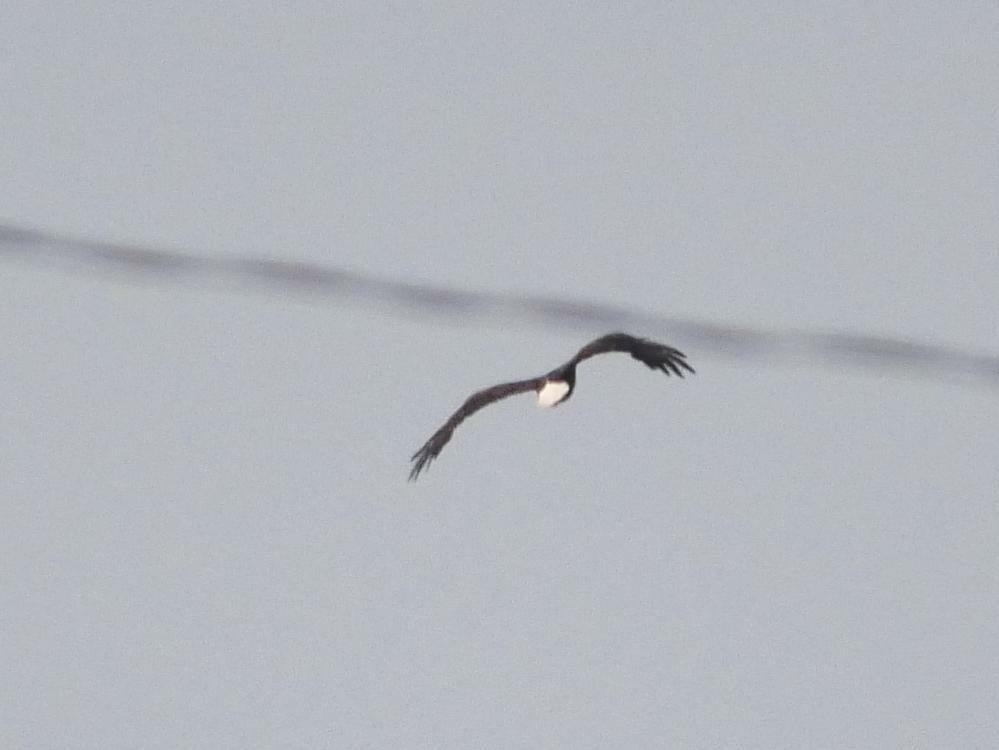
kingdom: Animalia
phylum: Chordata
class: Aves
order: Accipitriformes
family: Accipitridae
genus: Haliaeetus
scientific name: Haliaeetus leucocephalus
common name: Bald eagle
